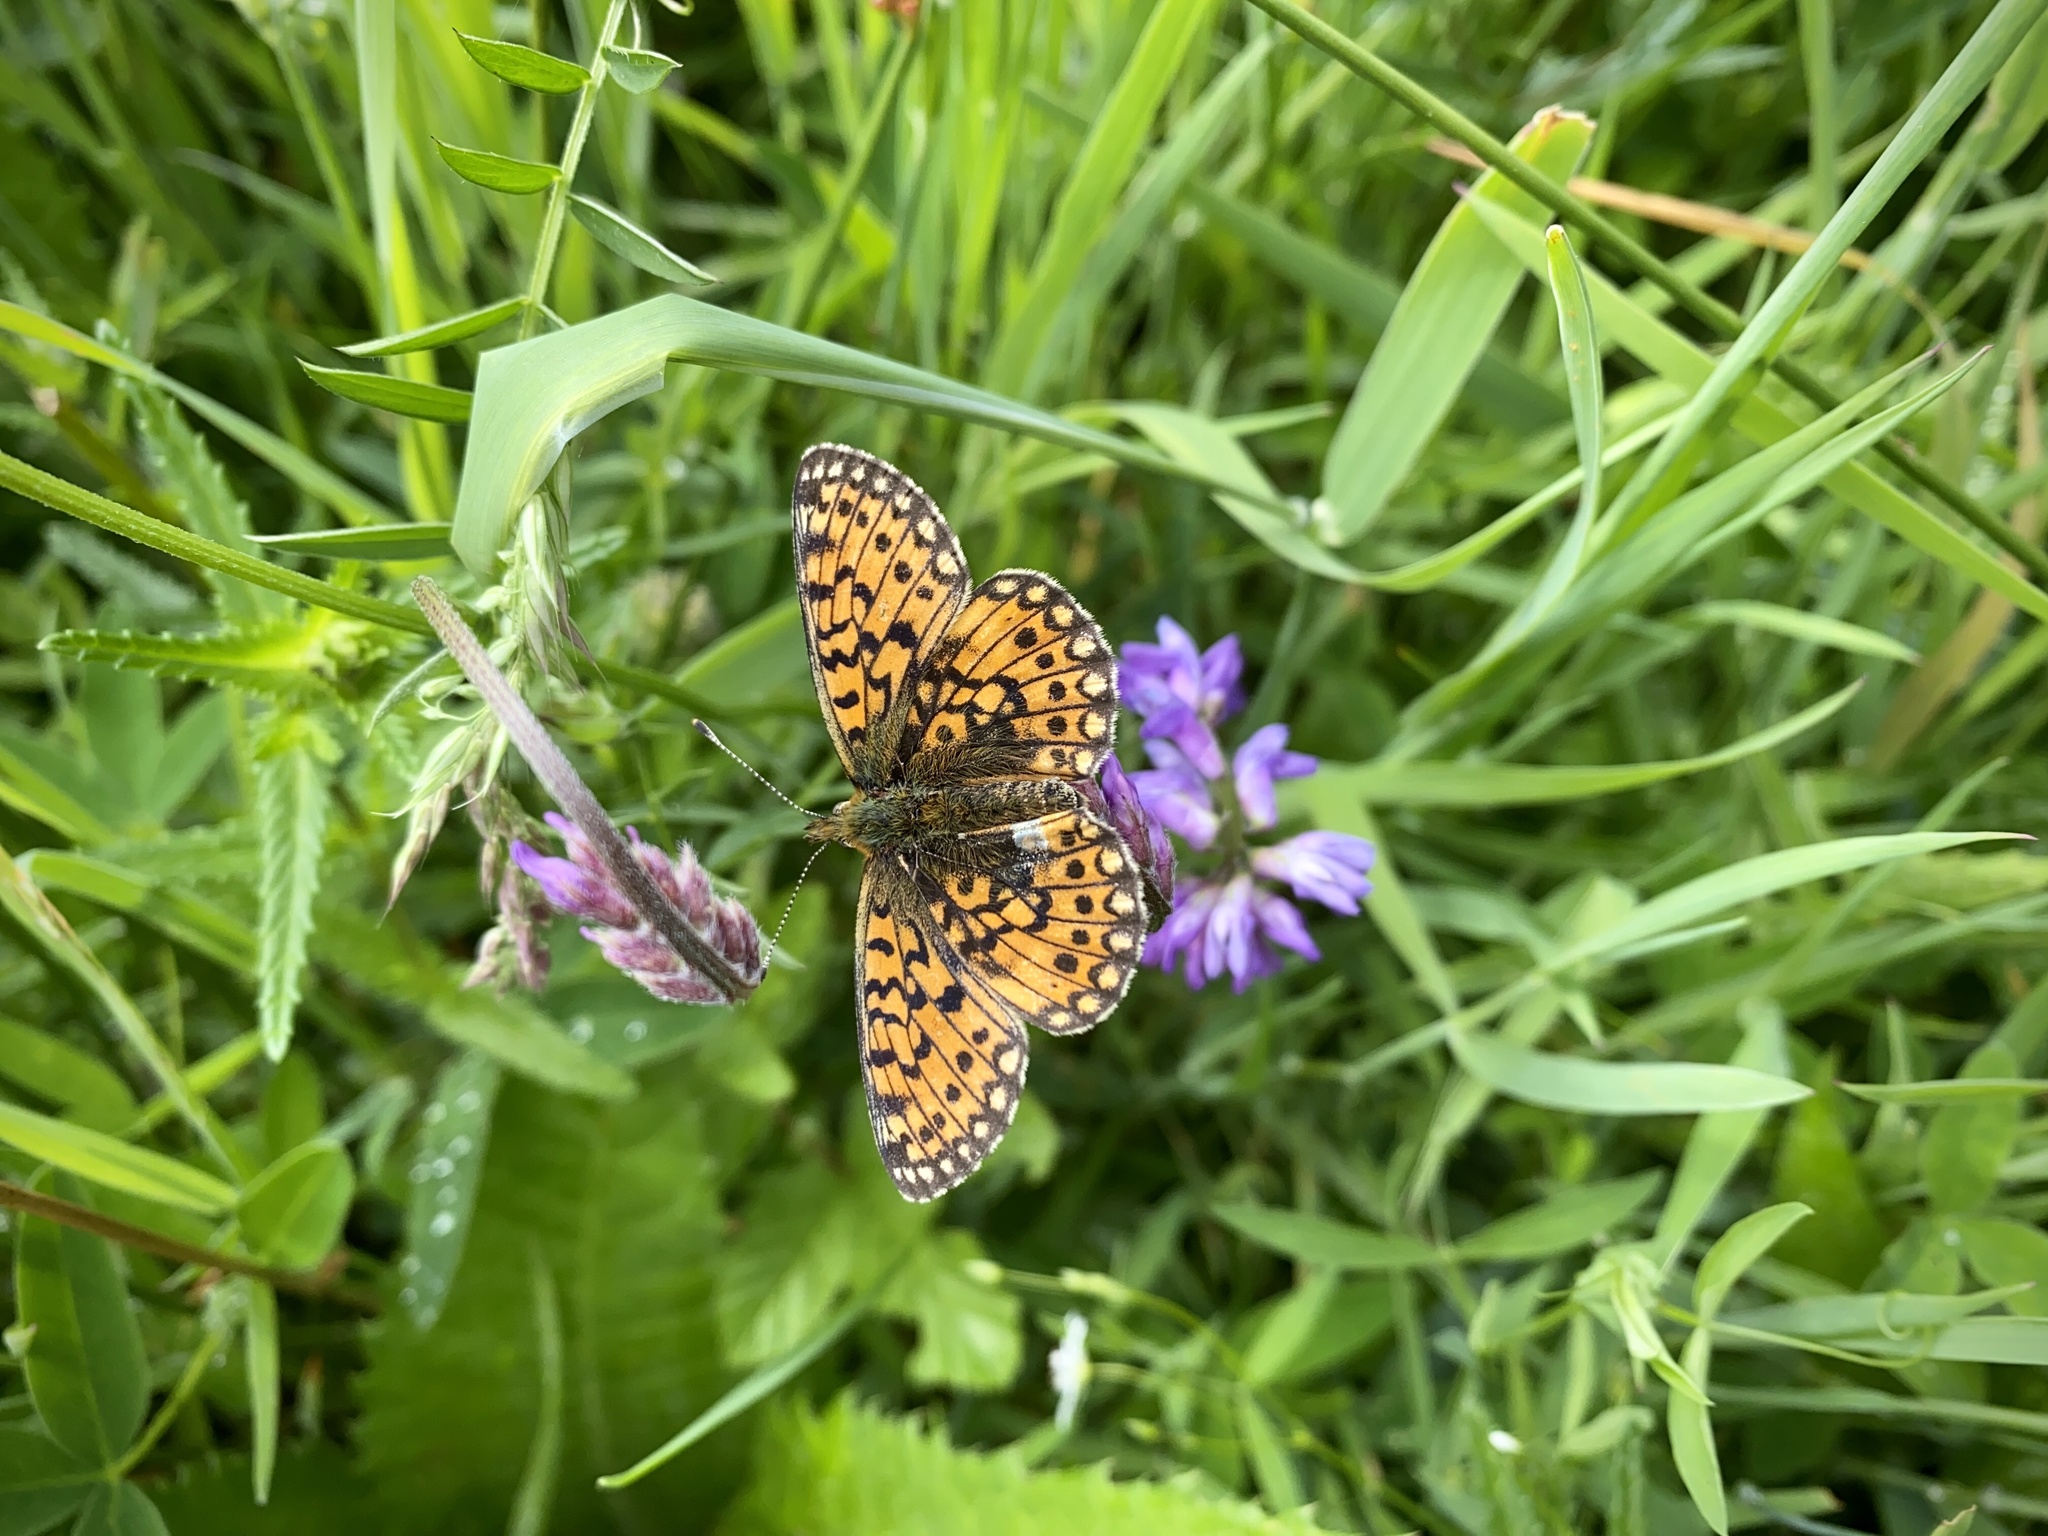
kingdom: Animalia
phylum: Arthropoda
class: Insecta
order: Lepidoptera
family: Nymphalidae
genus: Boloria
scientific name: Boloria selene
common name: Small pearl-bordered fritillary
